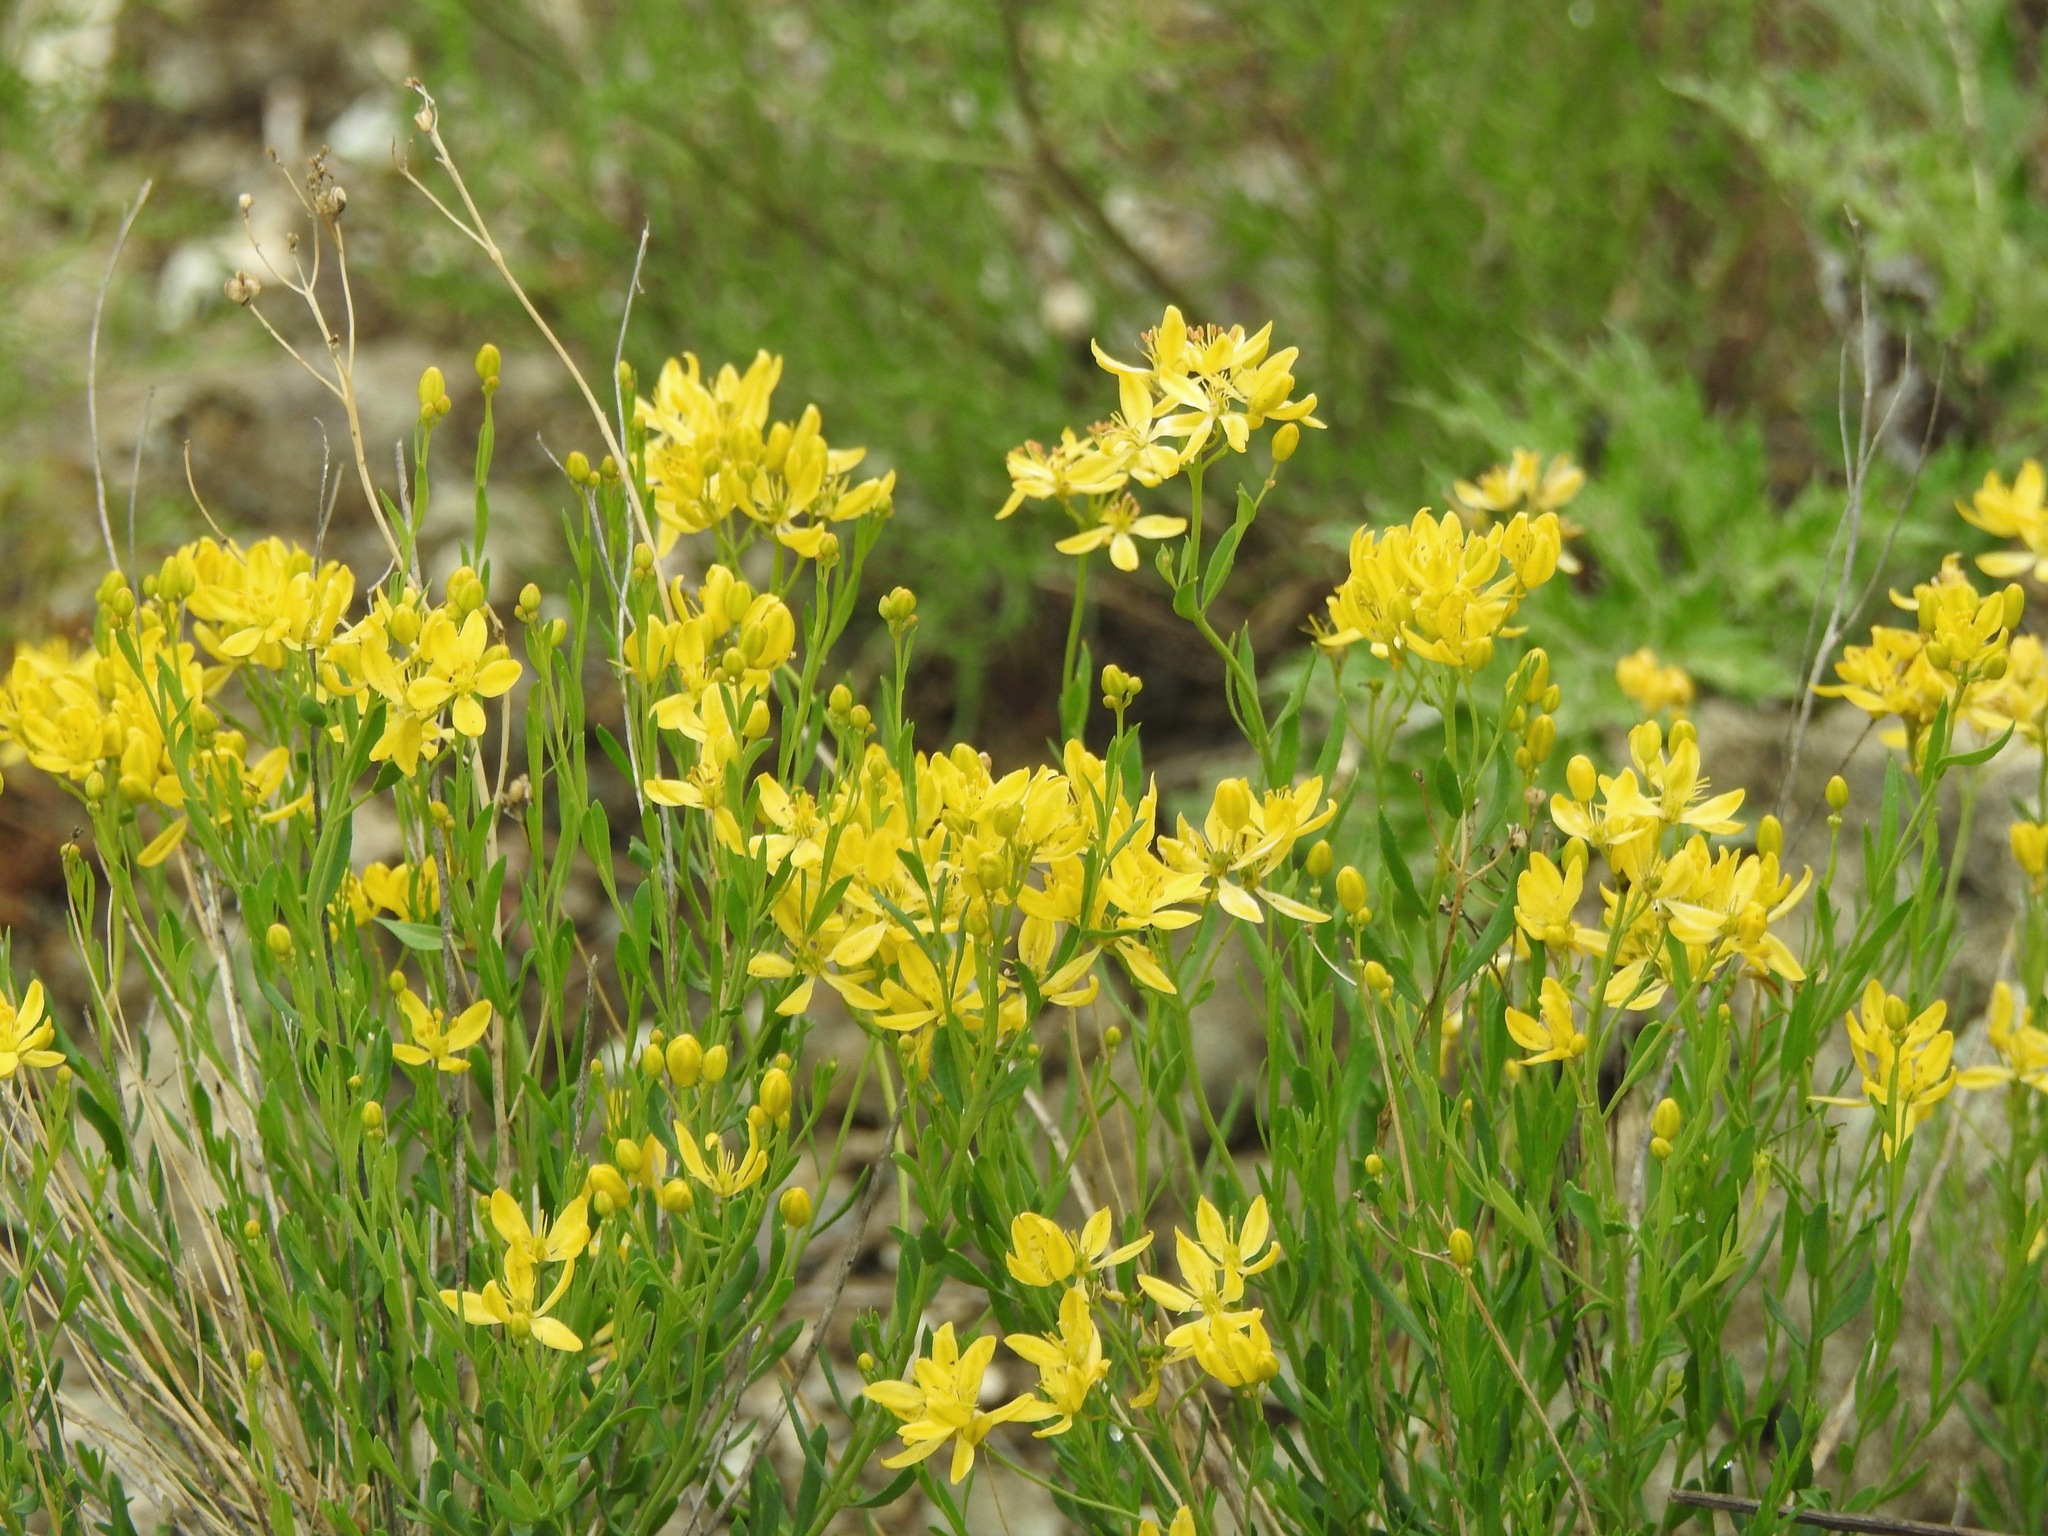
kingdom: Plantae
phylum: Tracheophyta
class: Magnoliopsida
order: Sapindales
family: Rutaceae
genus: Haplophyllum
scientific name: Haplophyllum dauricum
